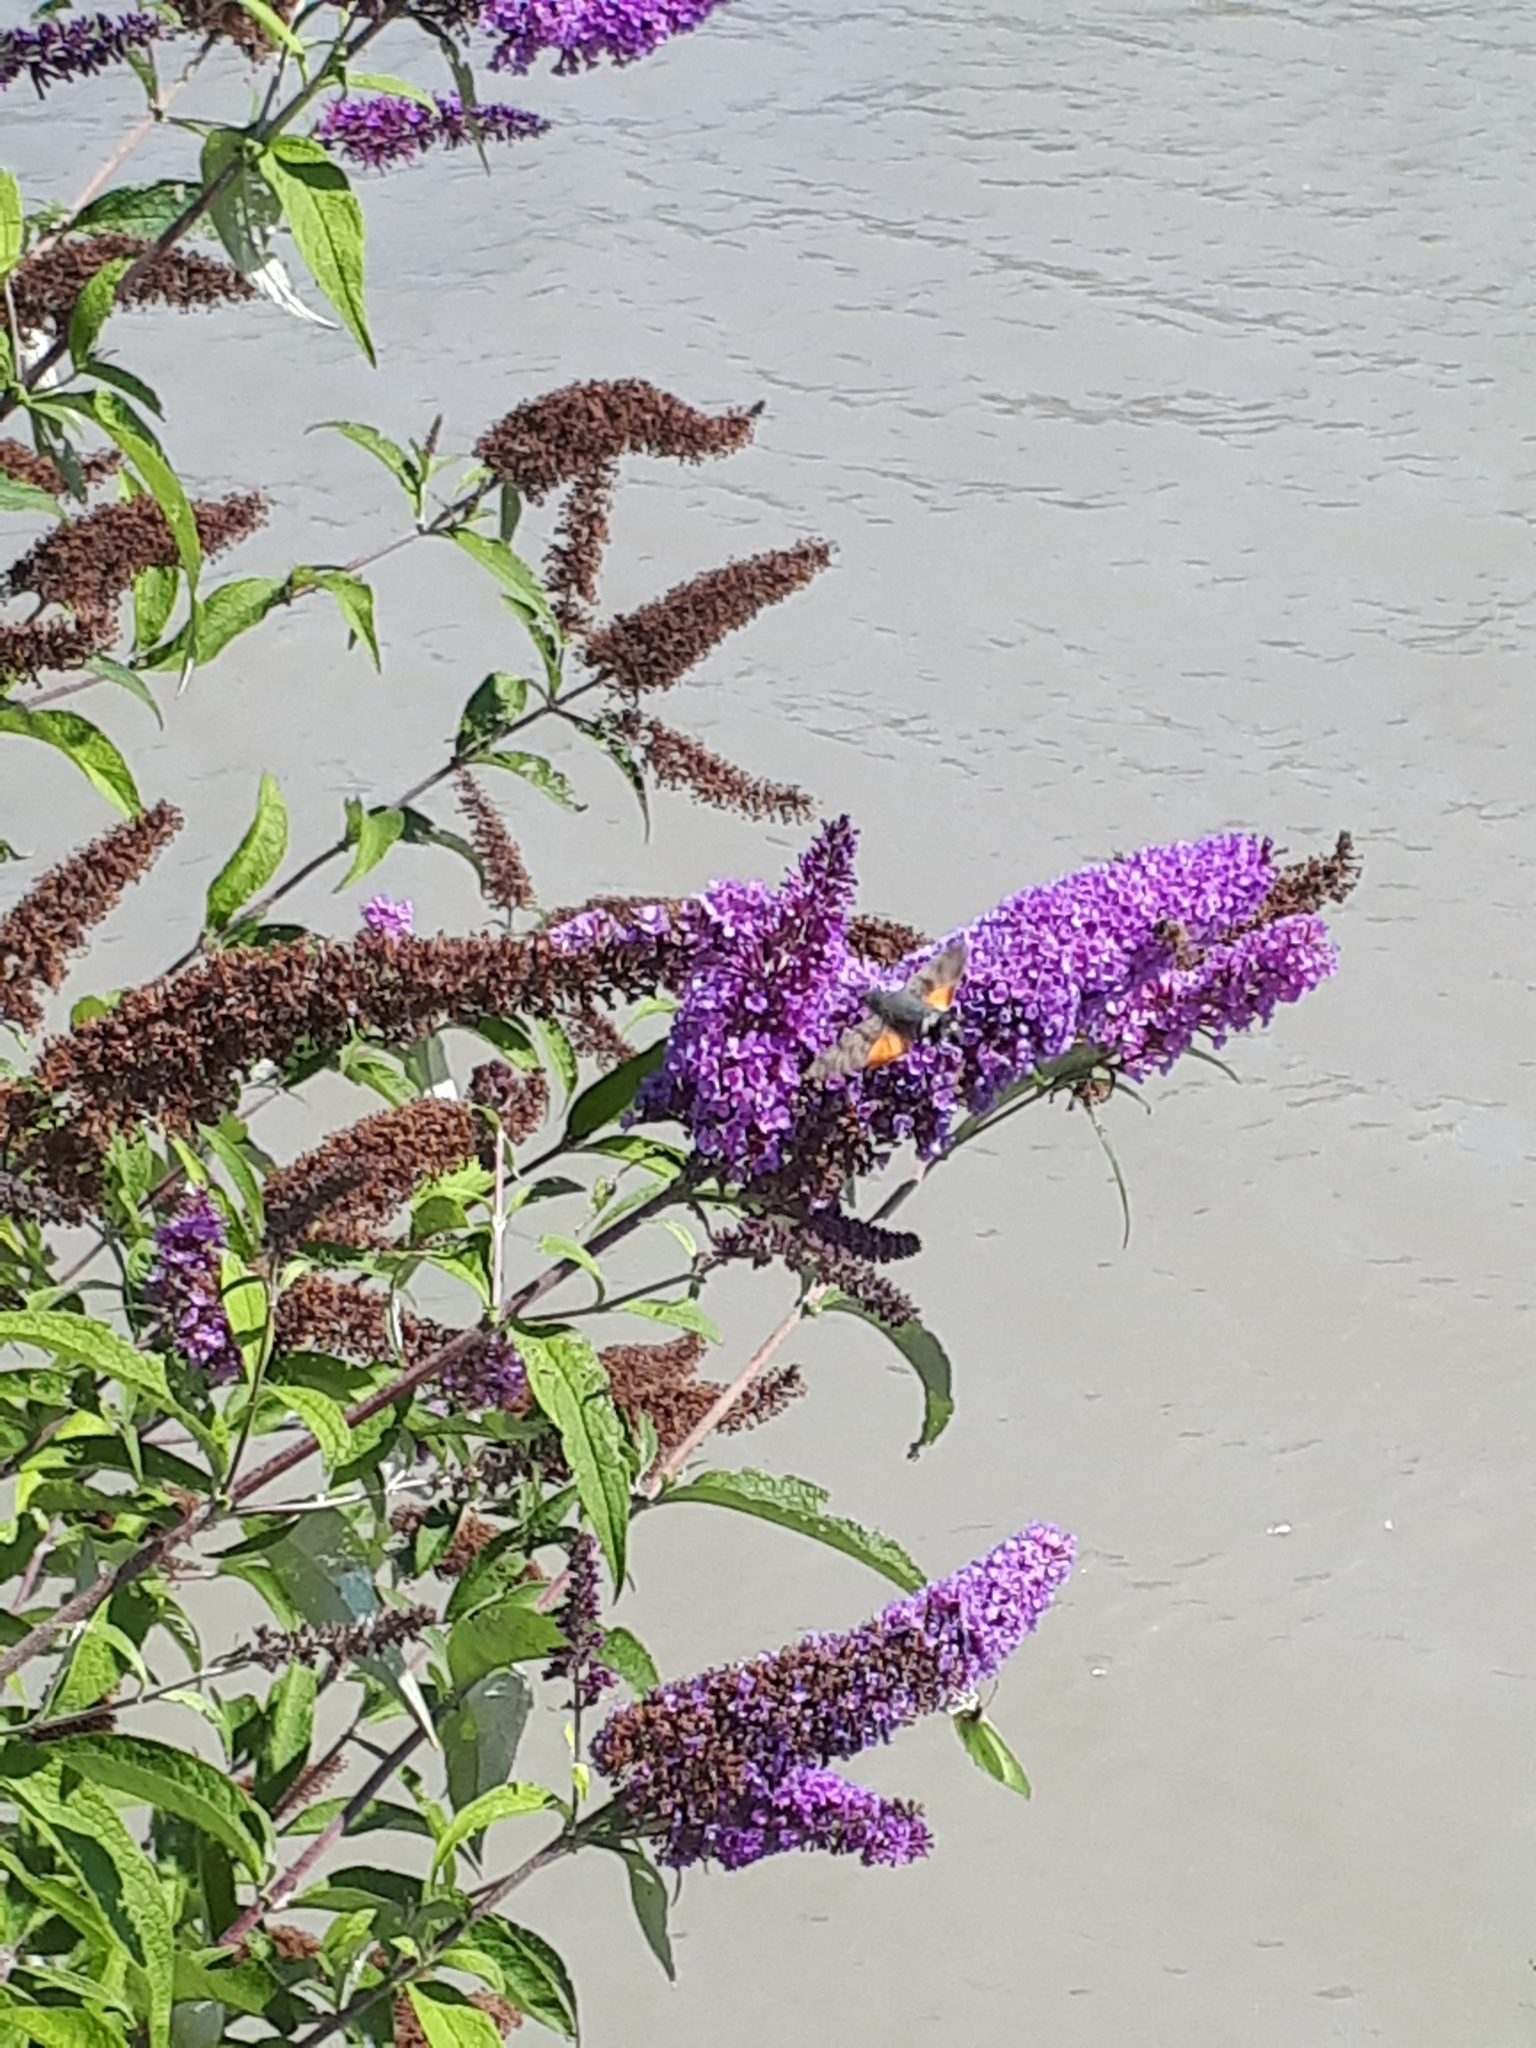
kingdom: Animalia
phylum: Arthropoda
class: Insecta
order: Lepidoptera
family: Sphingidae
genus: Macroglossum
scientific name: Macroglossum stellatarum
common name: Humming-bird hawk-moth
